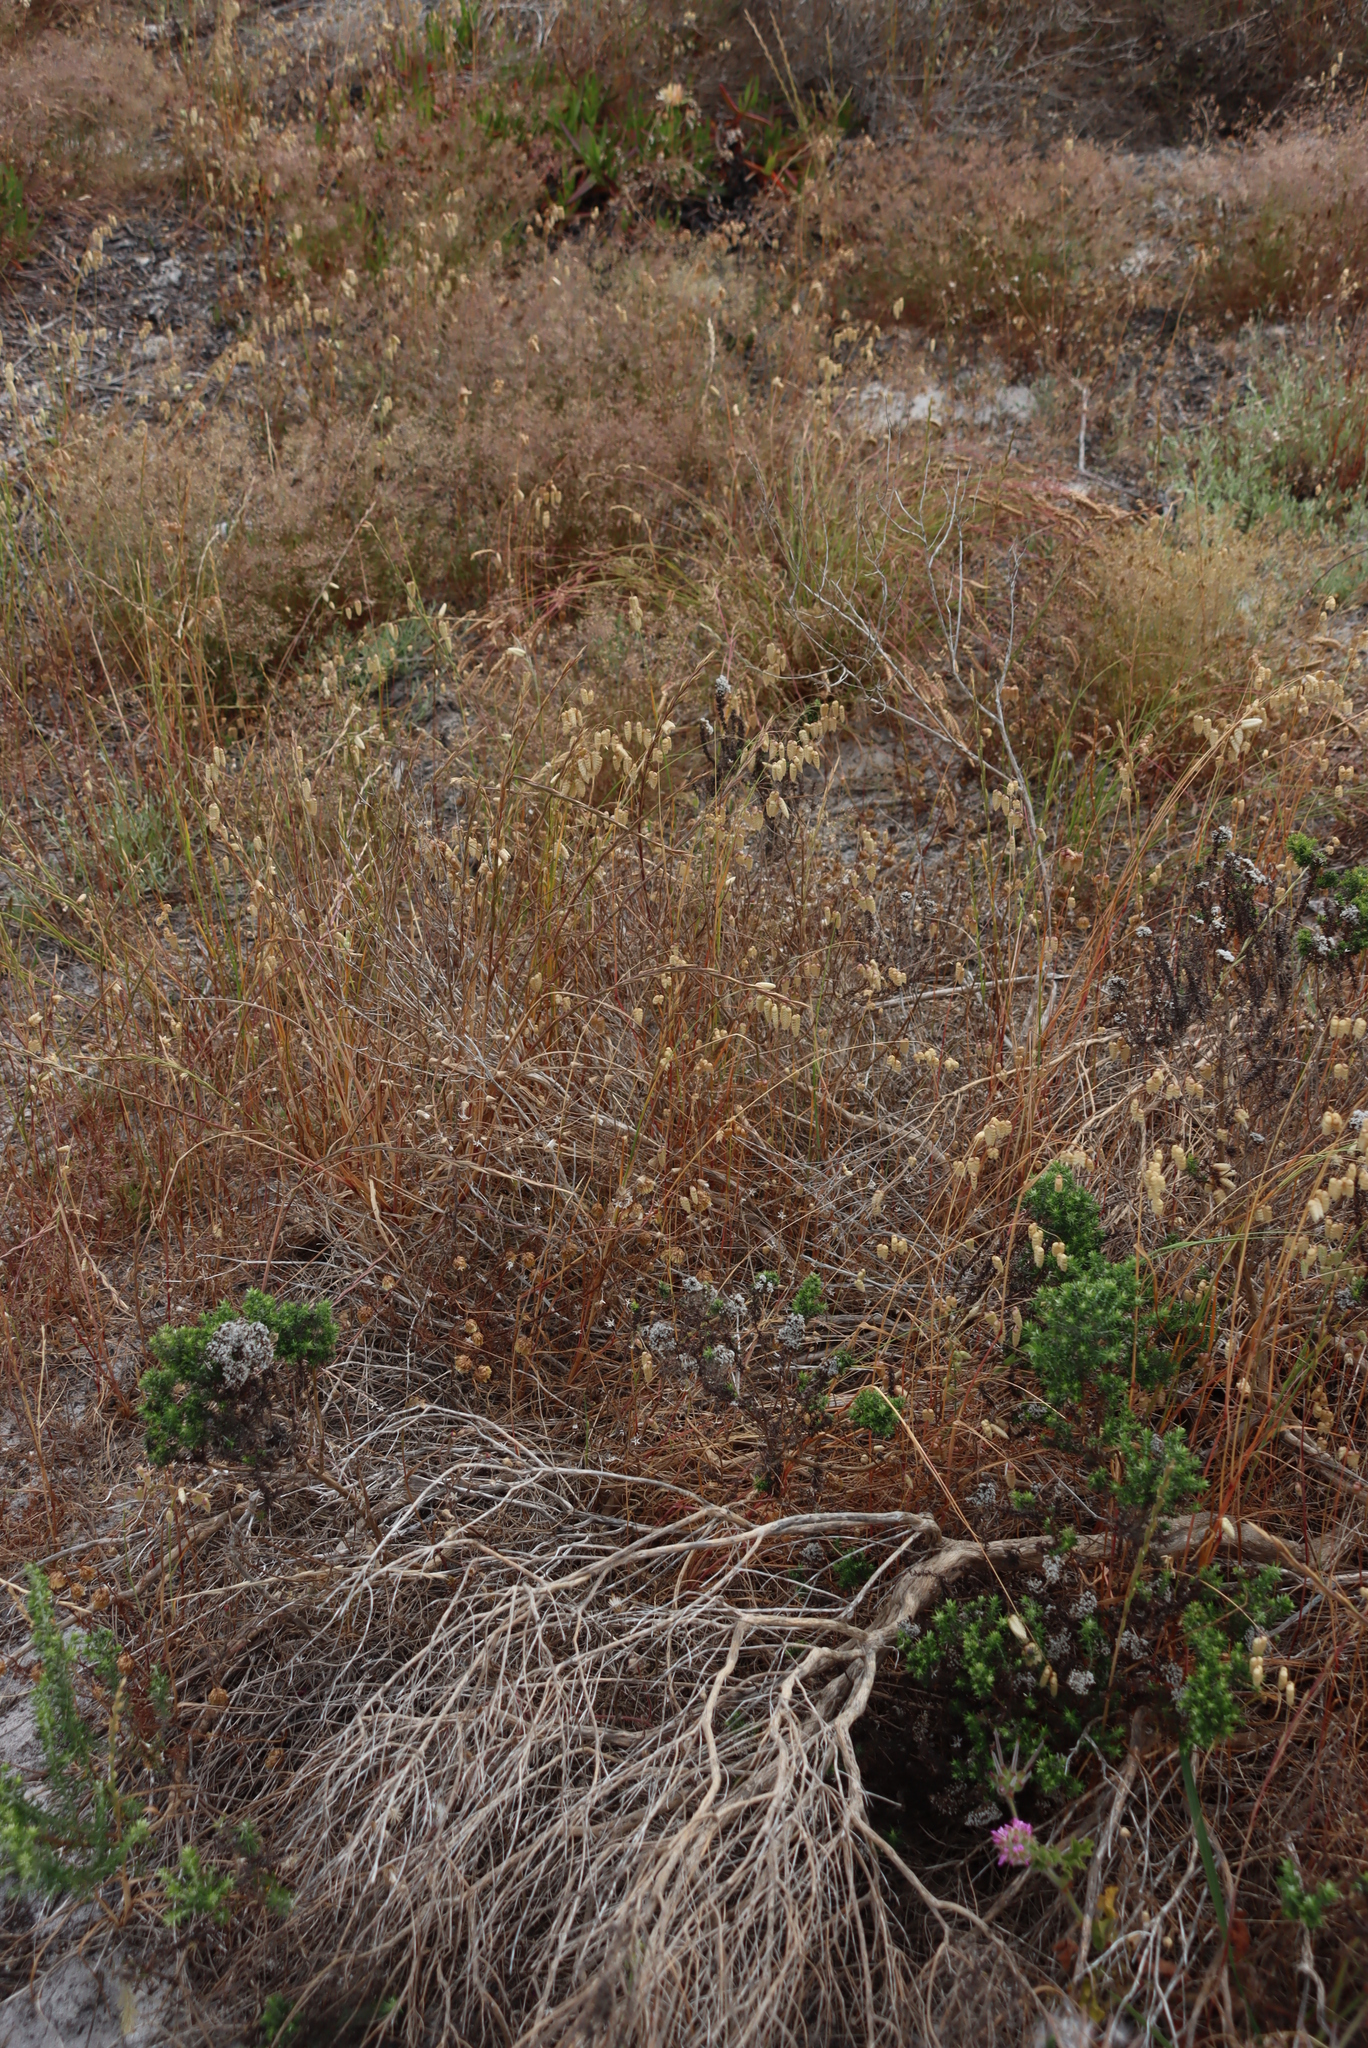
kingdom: Plantae
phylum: Tracheophyta
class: Liliopsida
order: Poales
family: Poaceae
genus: Briza
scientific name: Briza maxima
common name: Big quakinggrass
